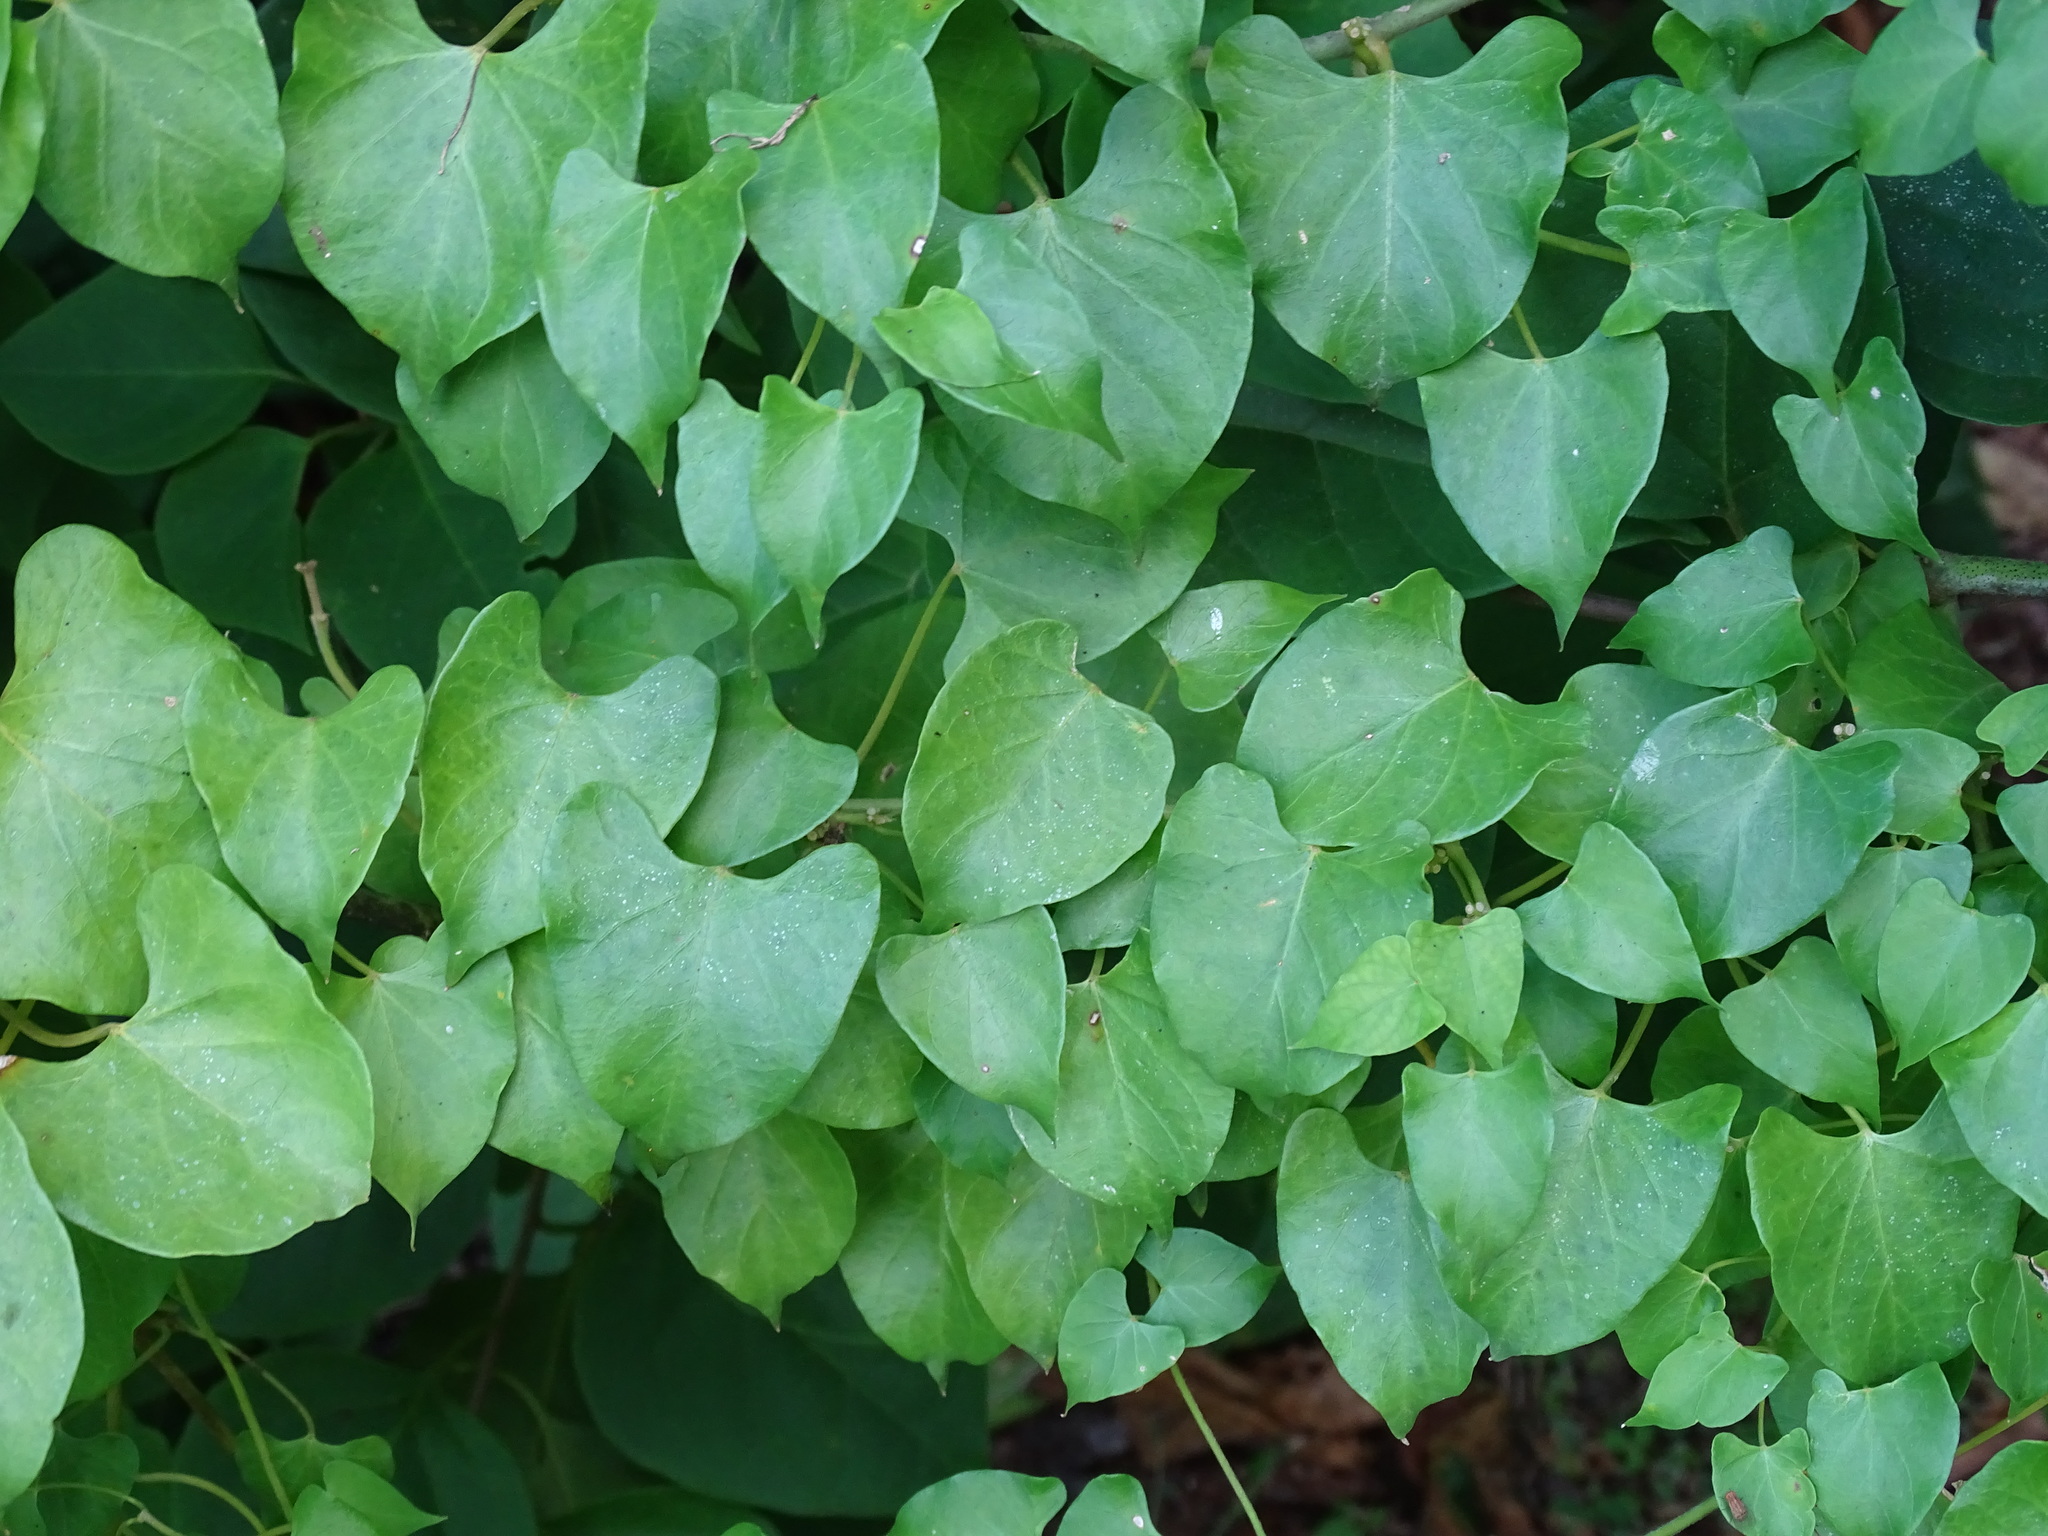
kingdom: Plantae
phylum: Tracheophyta
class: Magnoliopsida
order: Gentianales
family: Apocynaceae
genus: Gonolobus
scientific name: Gonolobus barbatus
